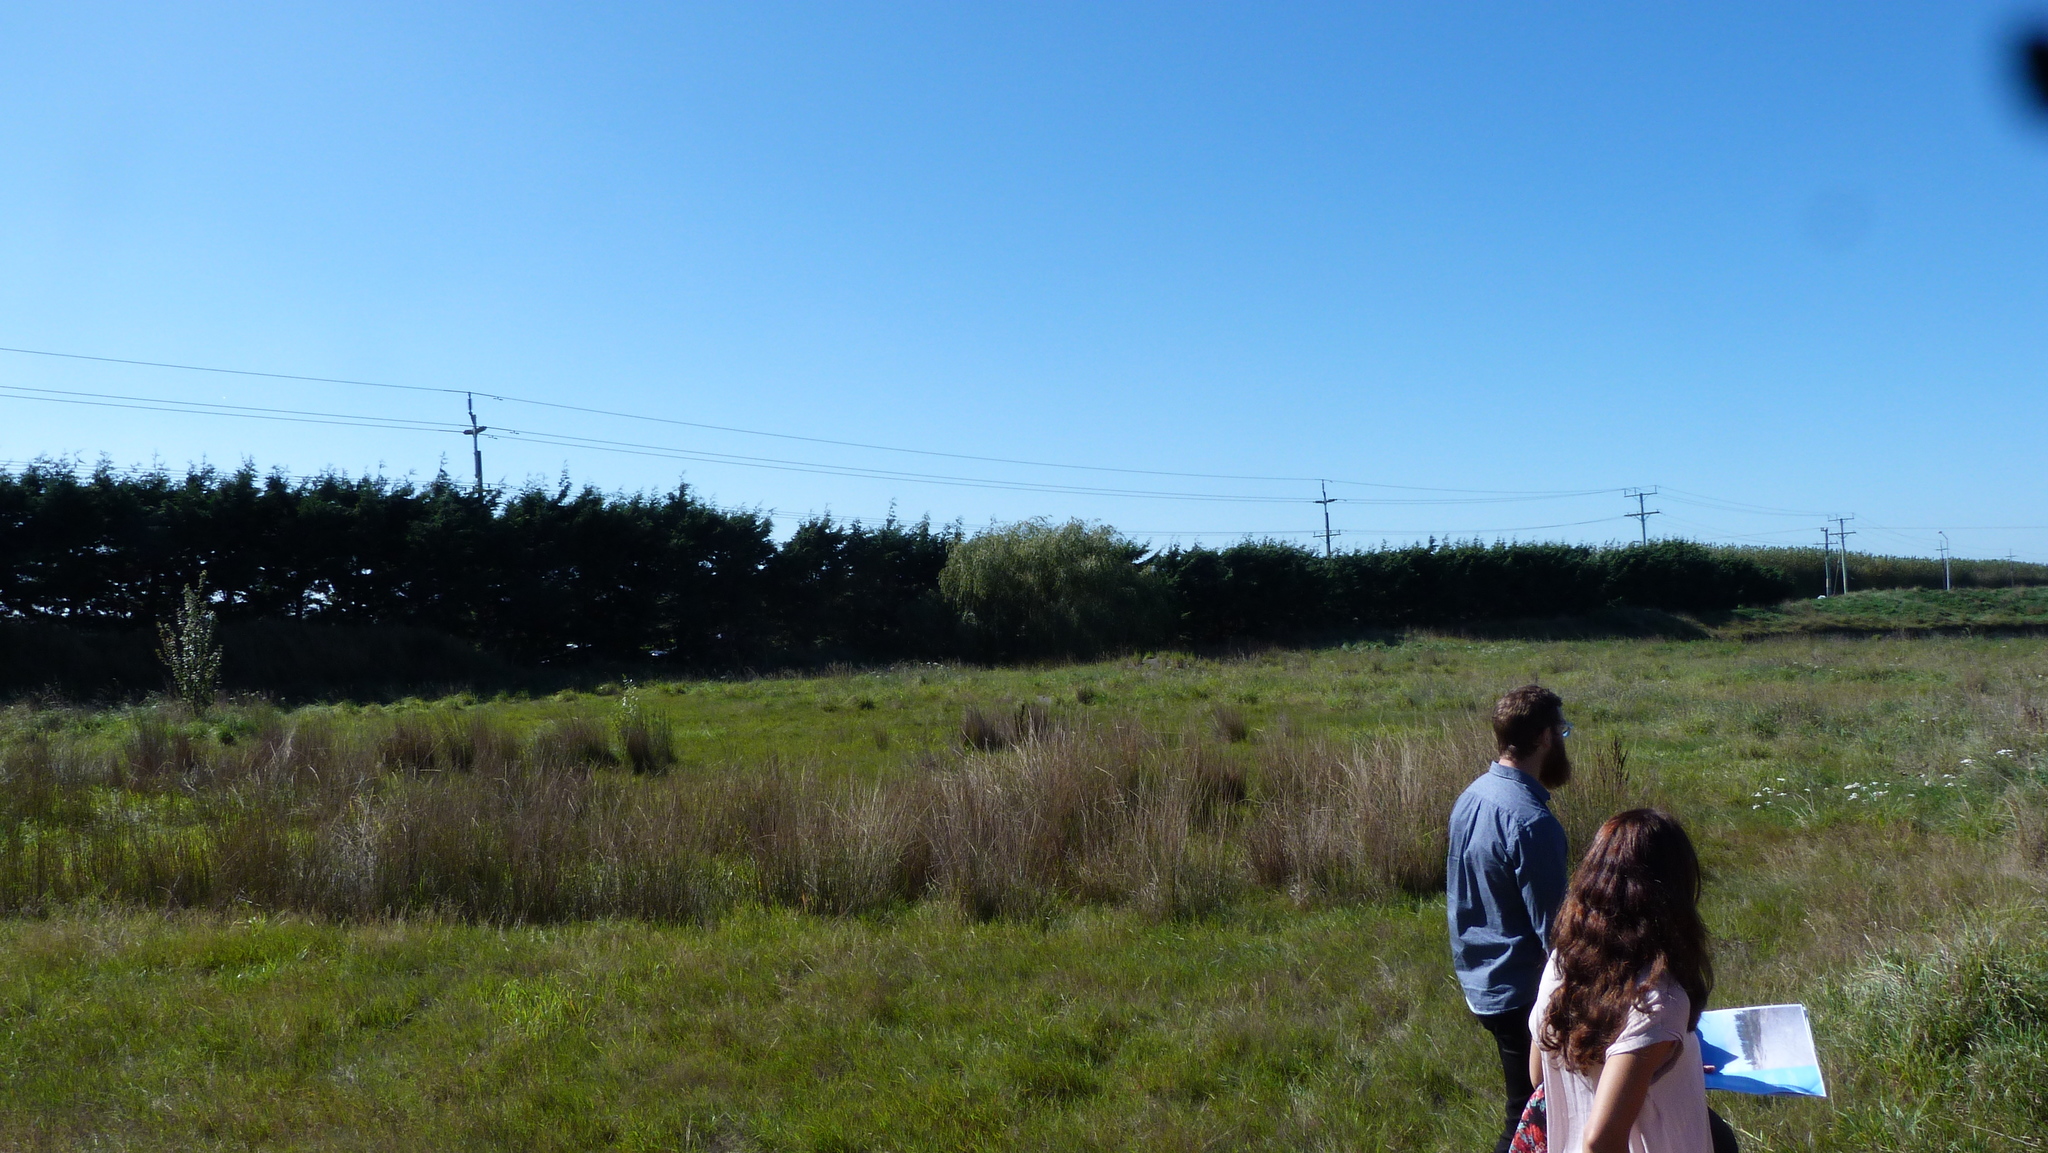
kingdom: Plantae
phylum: Tracheophyta
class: Liliopsida
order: Poales
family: Juncaceae
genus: Juncus
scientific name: Juncus australis
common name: Austral rush
